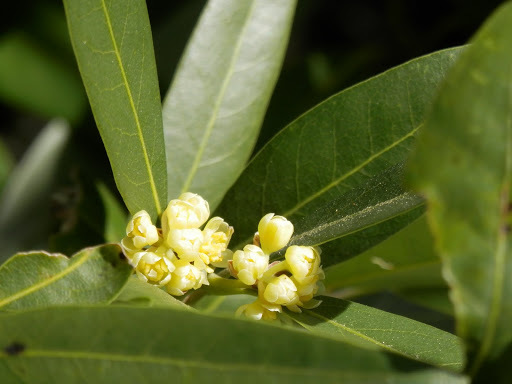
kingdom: Plantae
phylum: Tracheophyta
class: Magnoliopsida
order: Laurales
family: Lauraceae
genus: Umbellularia
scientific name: Umbellularia californica
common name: California bay
